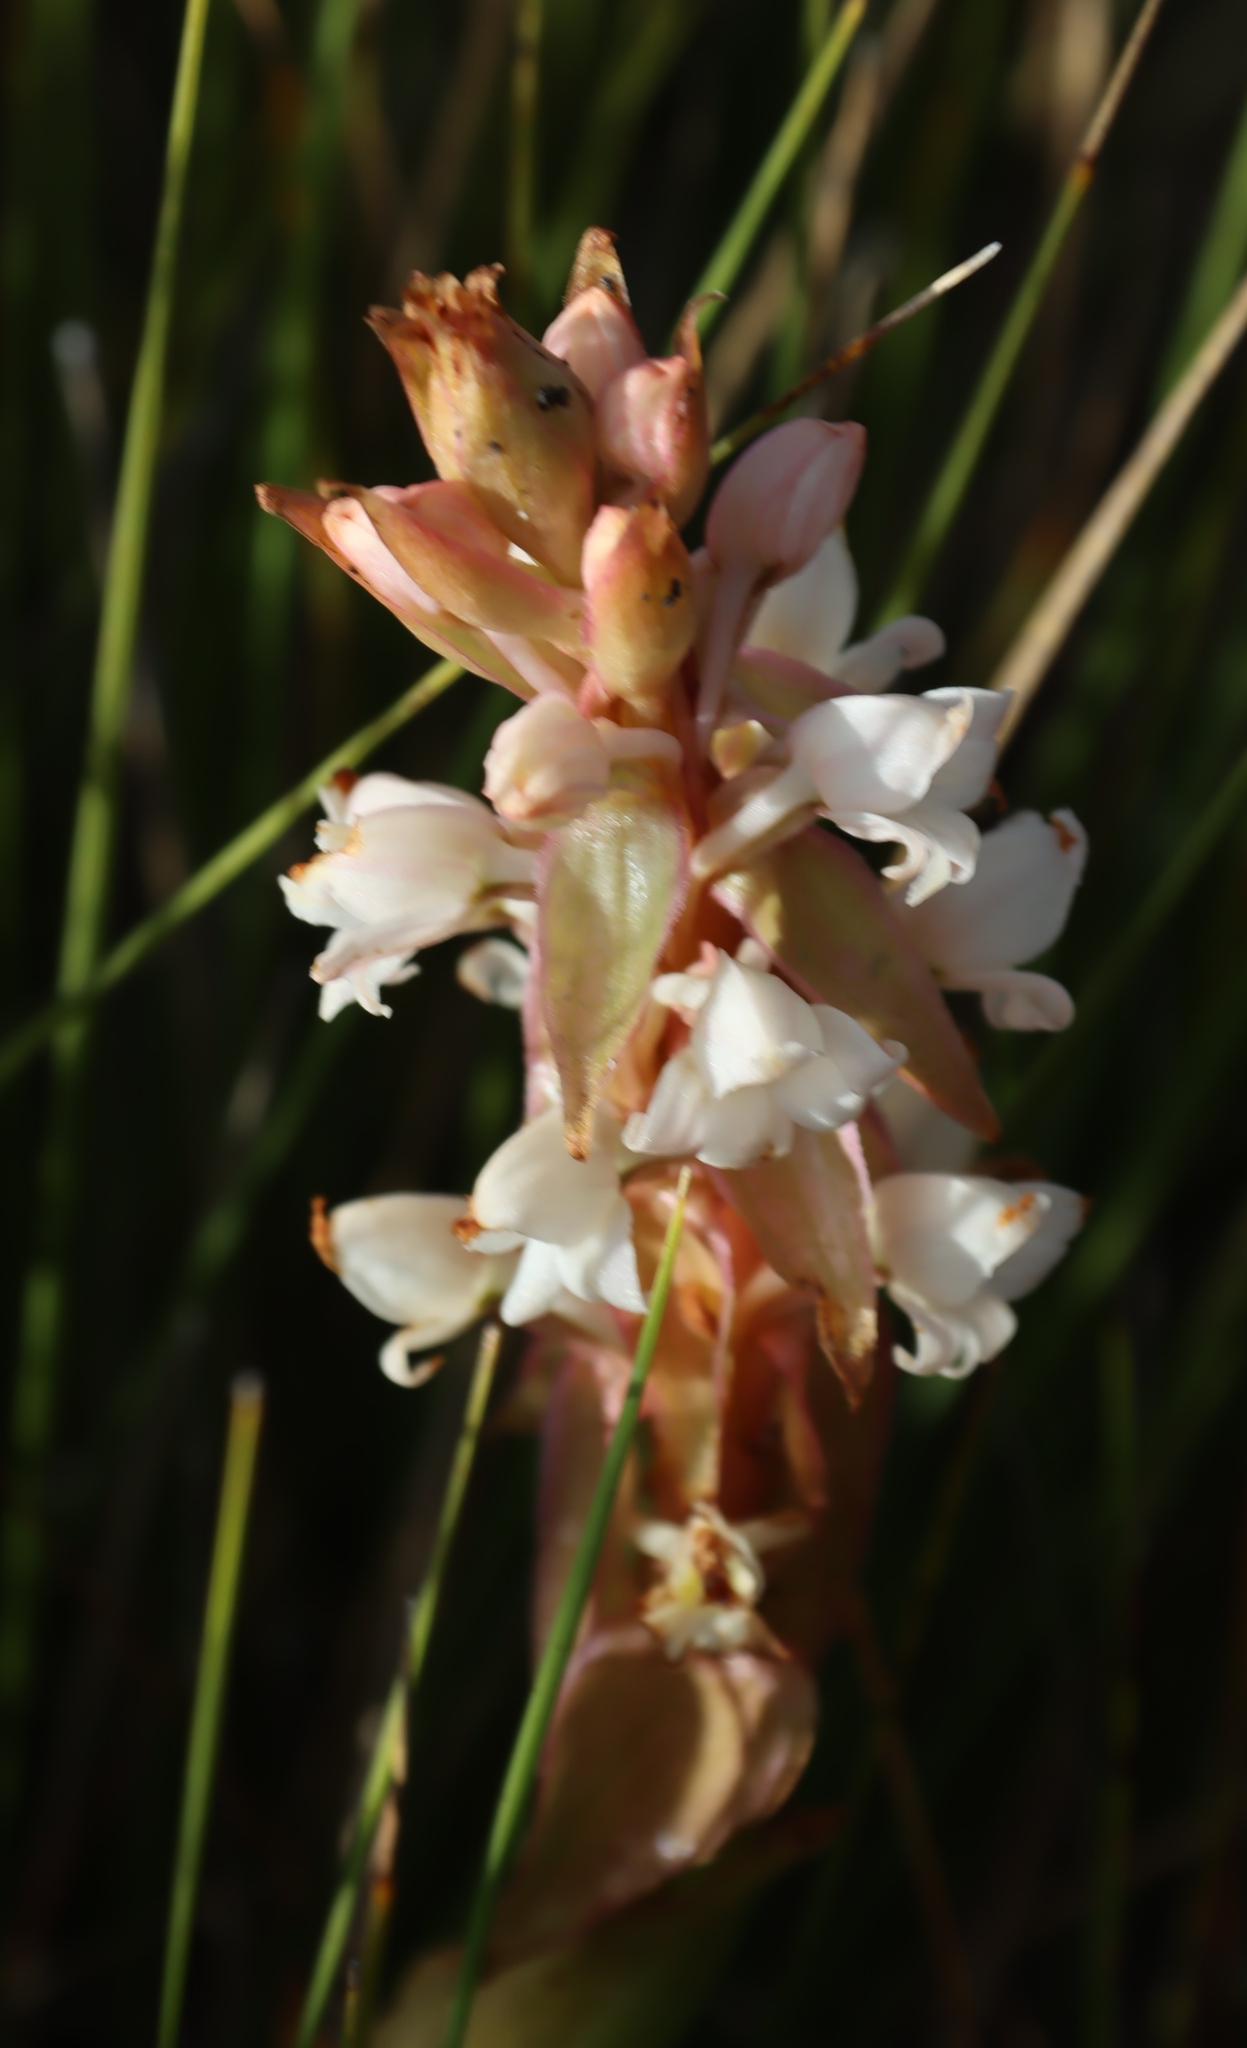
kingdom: Plantae
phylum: Tracheophyta
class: Liliopsida
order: Asparagales
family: Orchidaceae
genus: Satyrium
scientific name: Satyrium acuminatum
